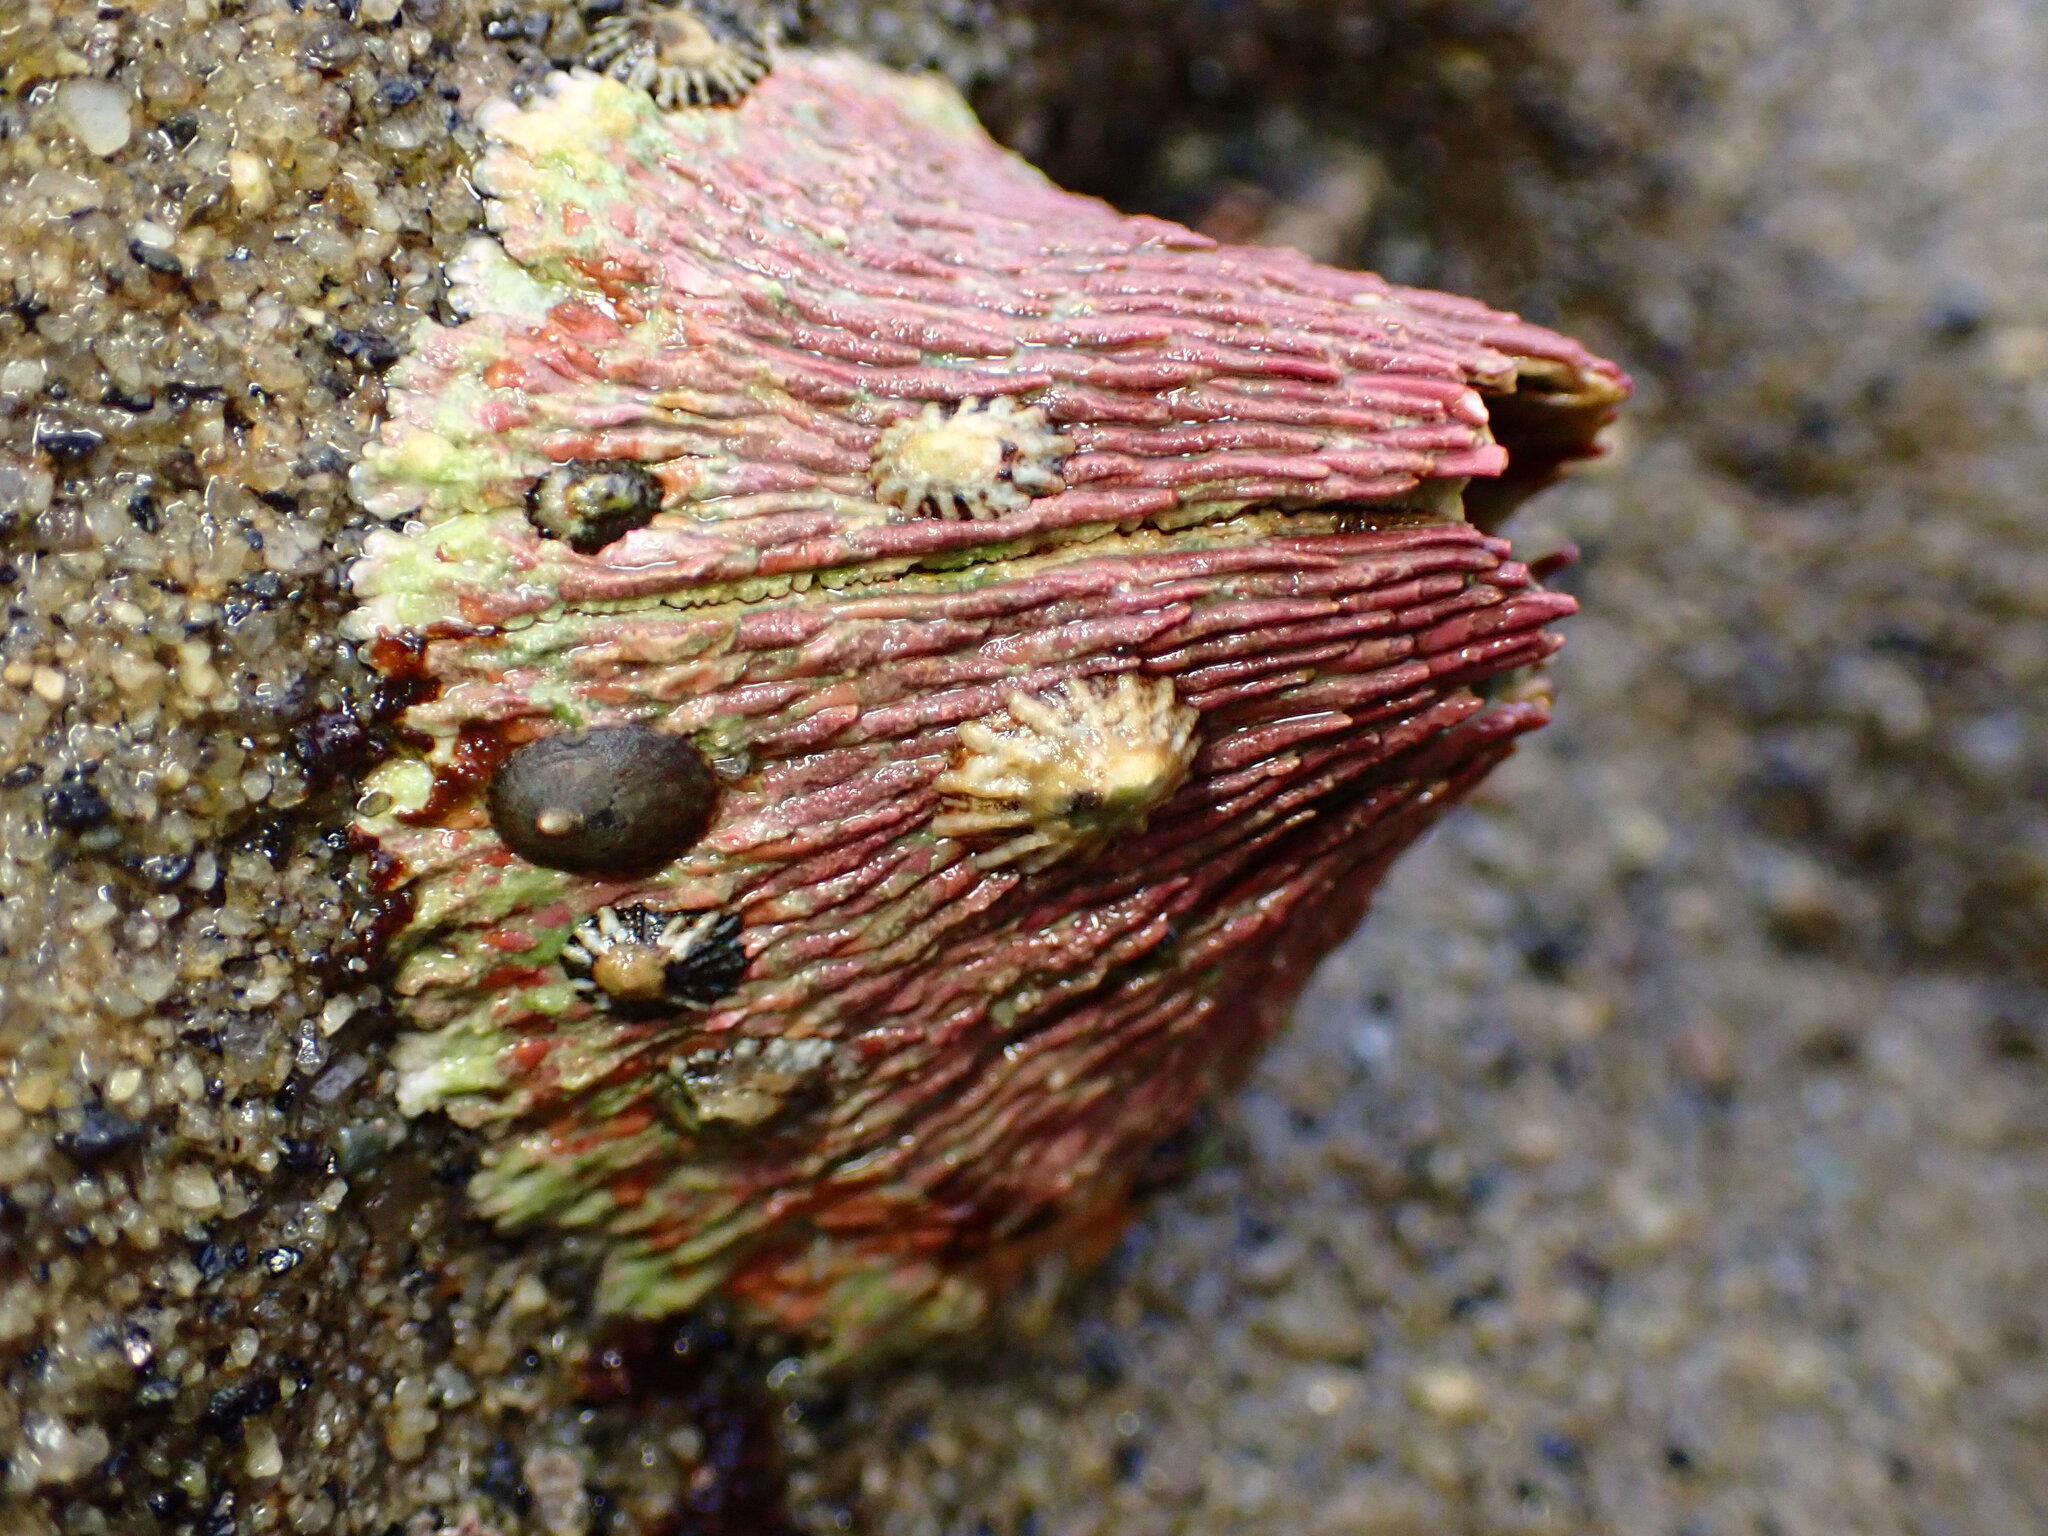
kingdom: Animalia
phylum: Arthropoda
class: Maxillopoda
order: Sessilia
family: Tetraclitidae
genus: Tetraclita
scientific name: Tetraclita rubescens
